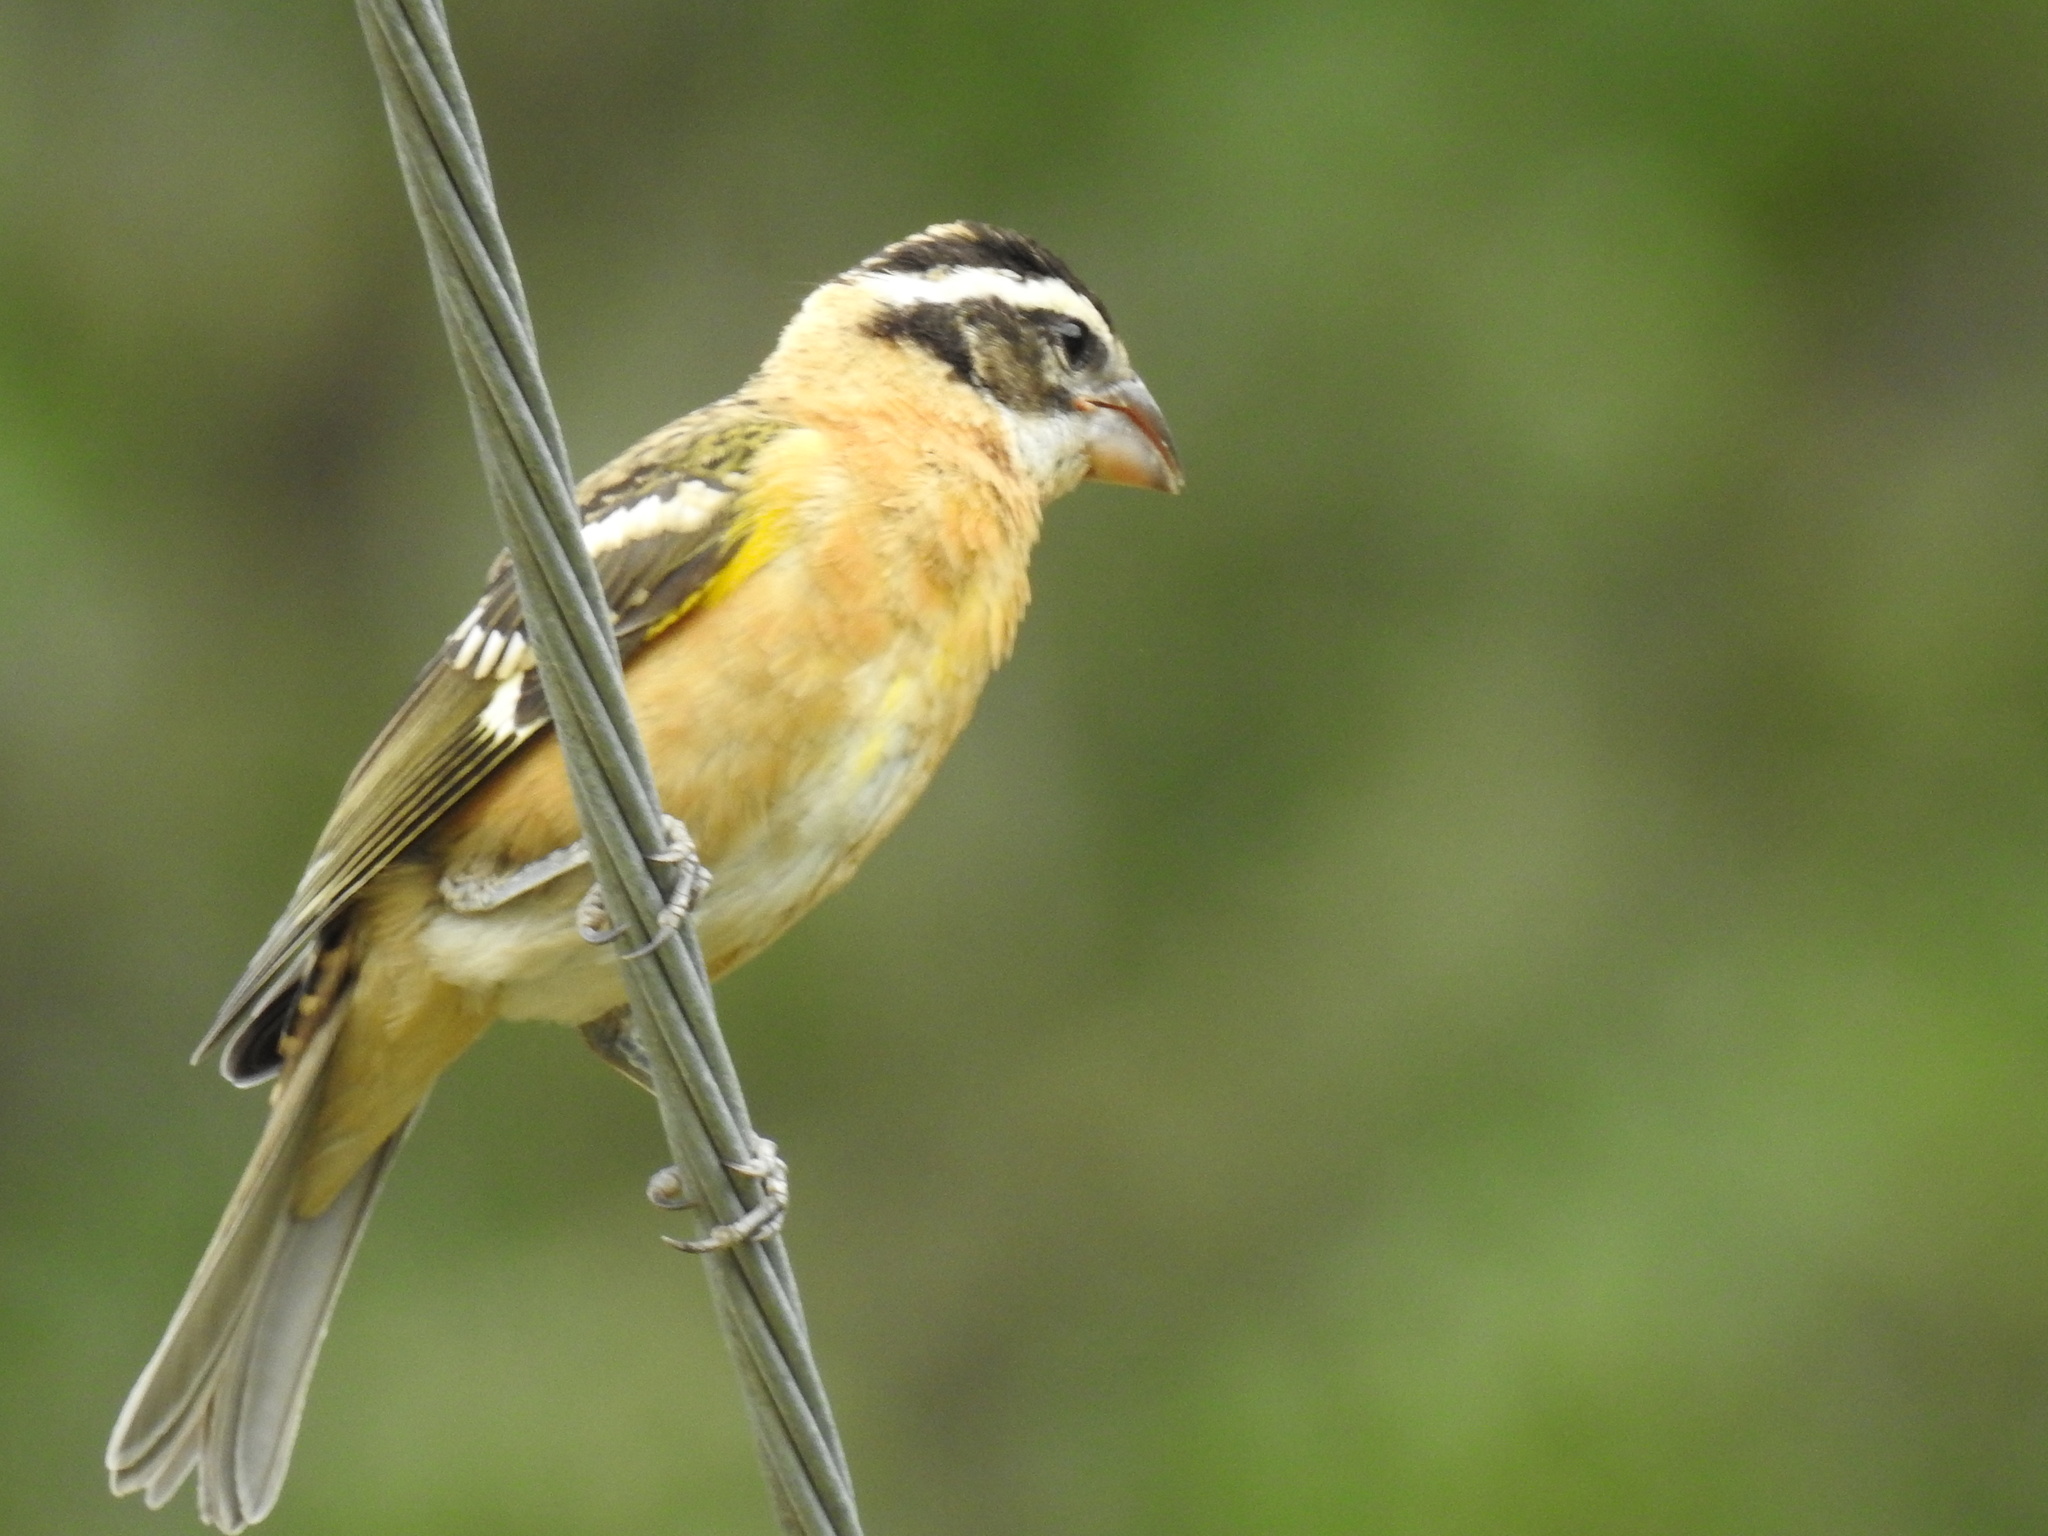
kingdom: Animalia
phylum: Chordata
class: Aves
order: Passeriformes
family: Cardinalidae
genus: Pheucticus
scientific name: Pheucticus melanocephalus
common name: Black-headed grosbeak
